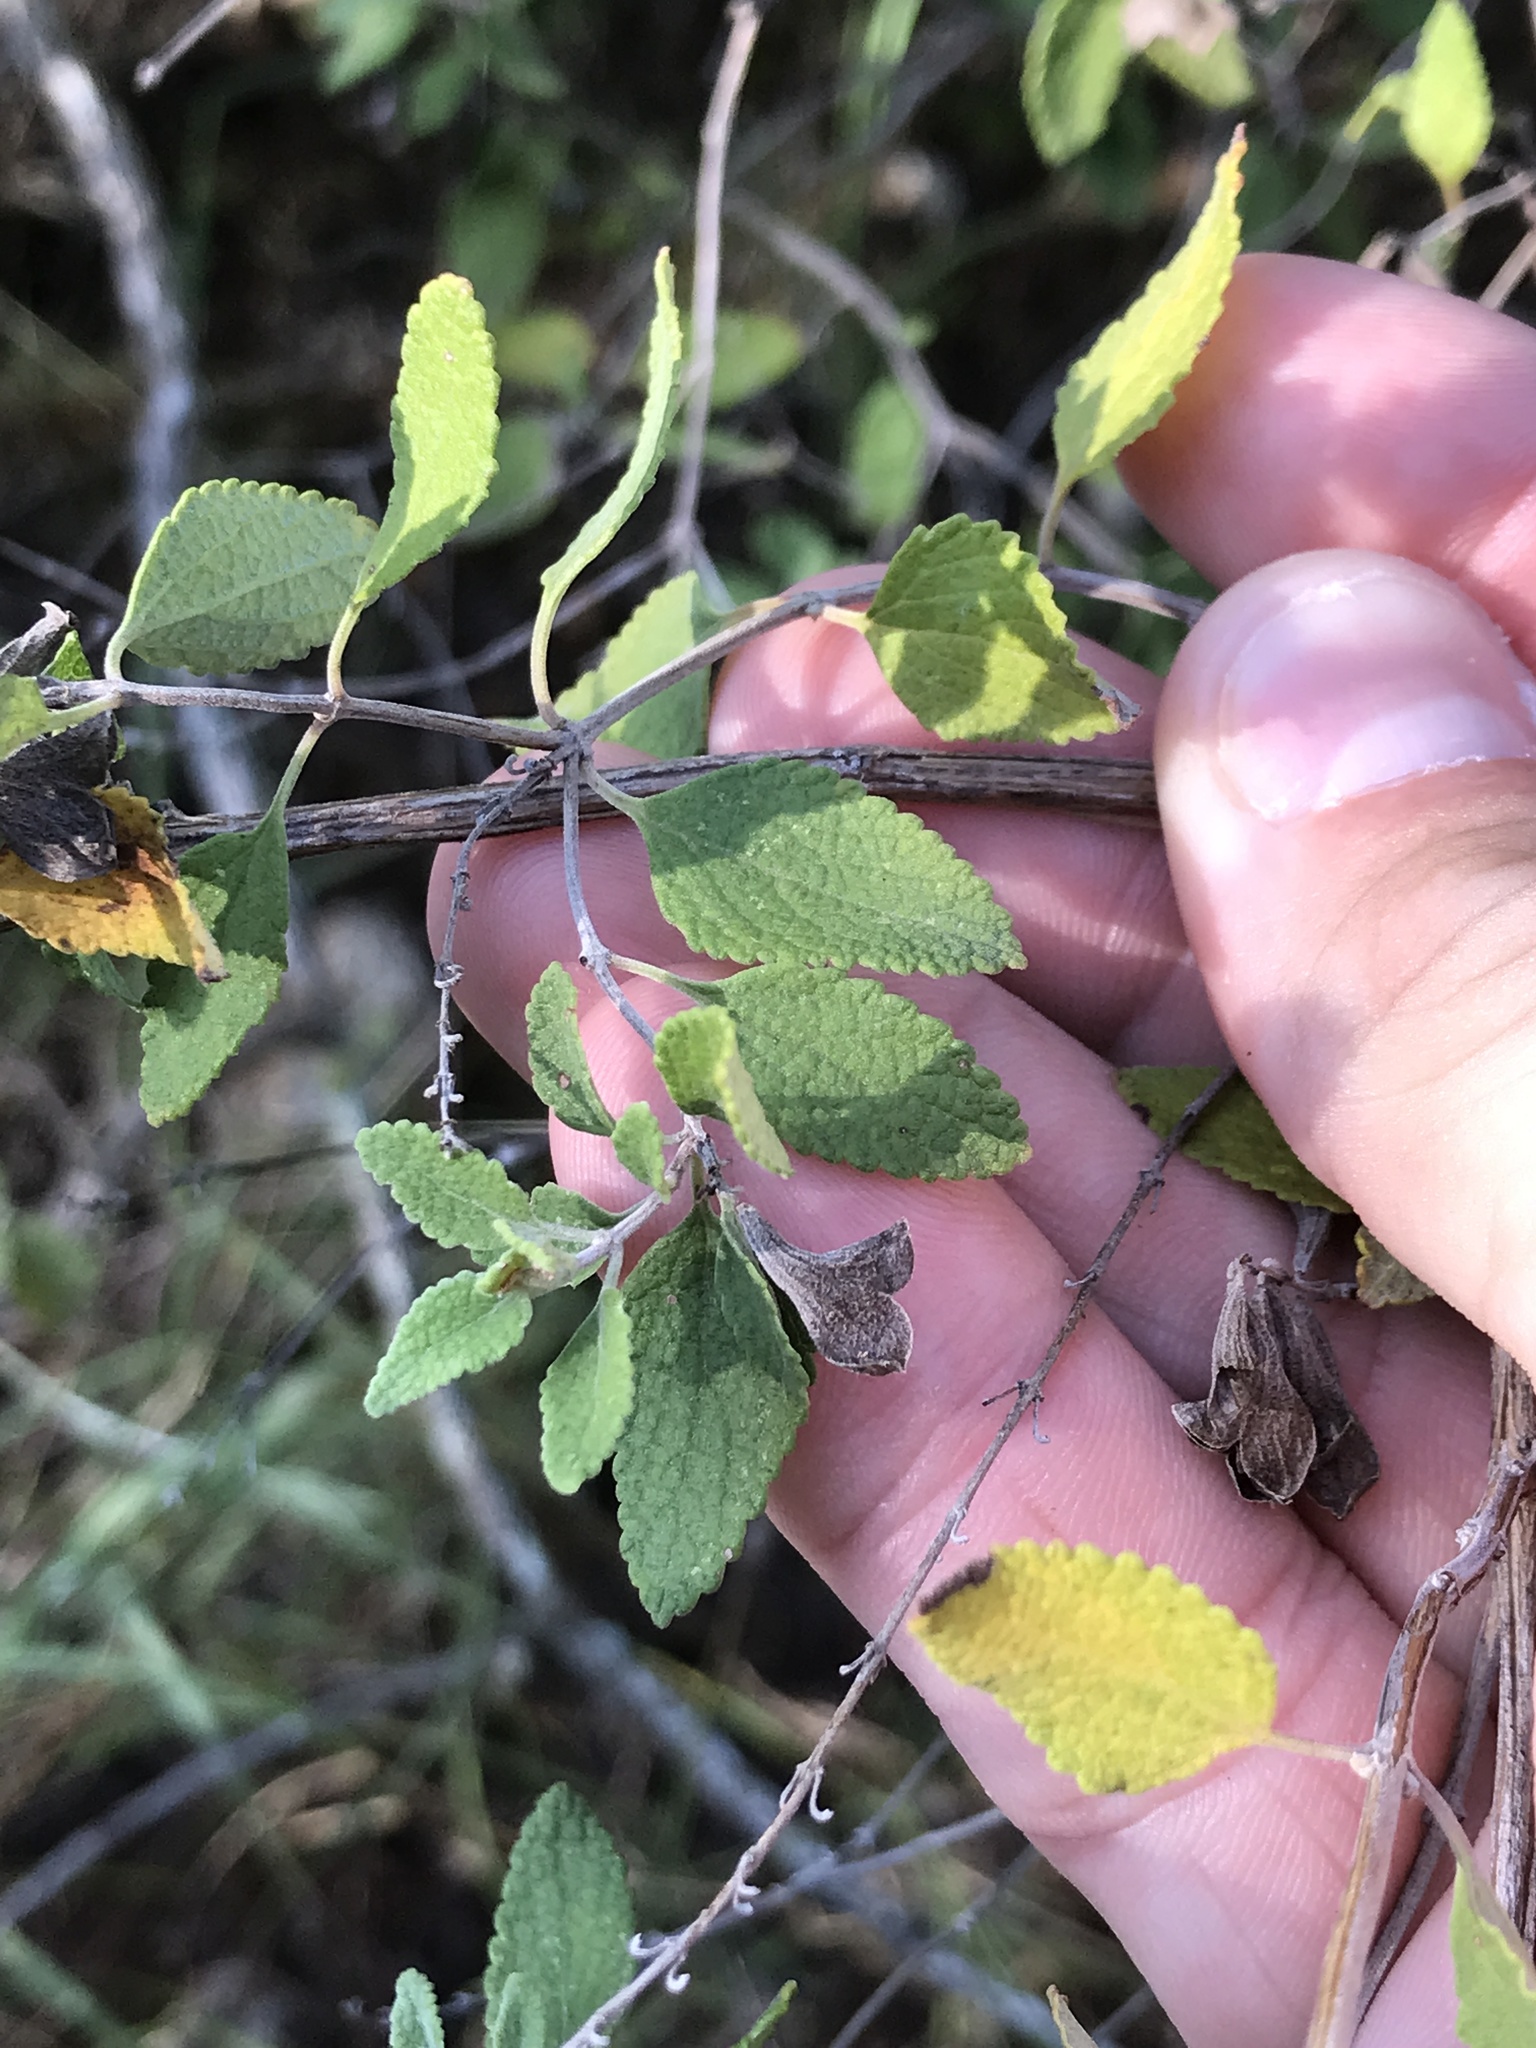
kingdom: Plantae
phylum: Tracheophyta
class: Magnoliopsida
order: Lamiales
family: Lamiaceae
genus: Salvia
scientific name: Salvia ballotiflora
